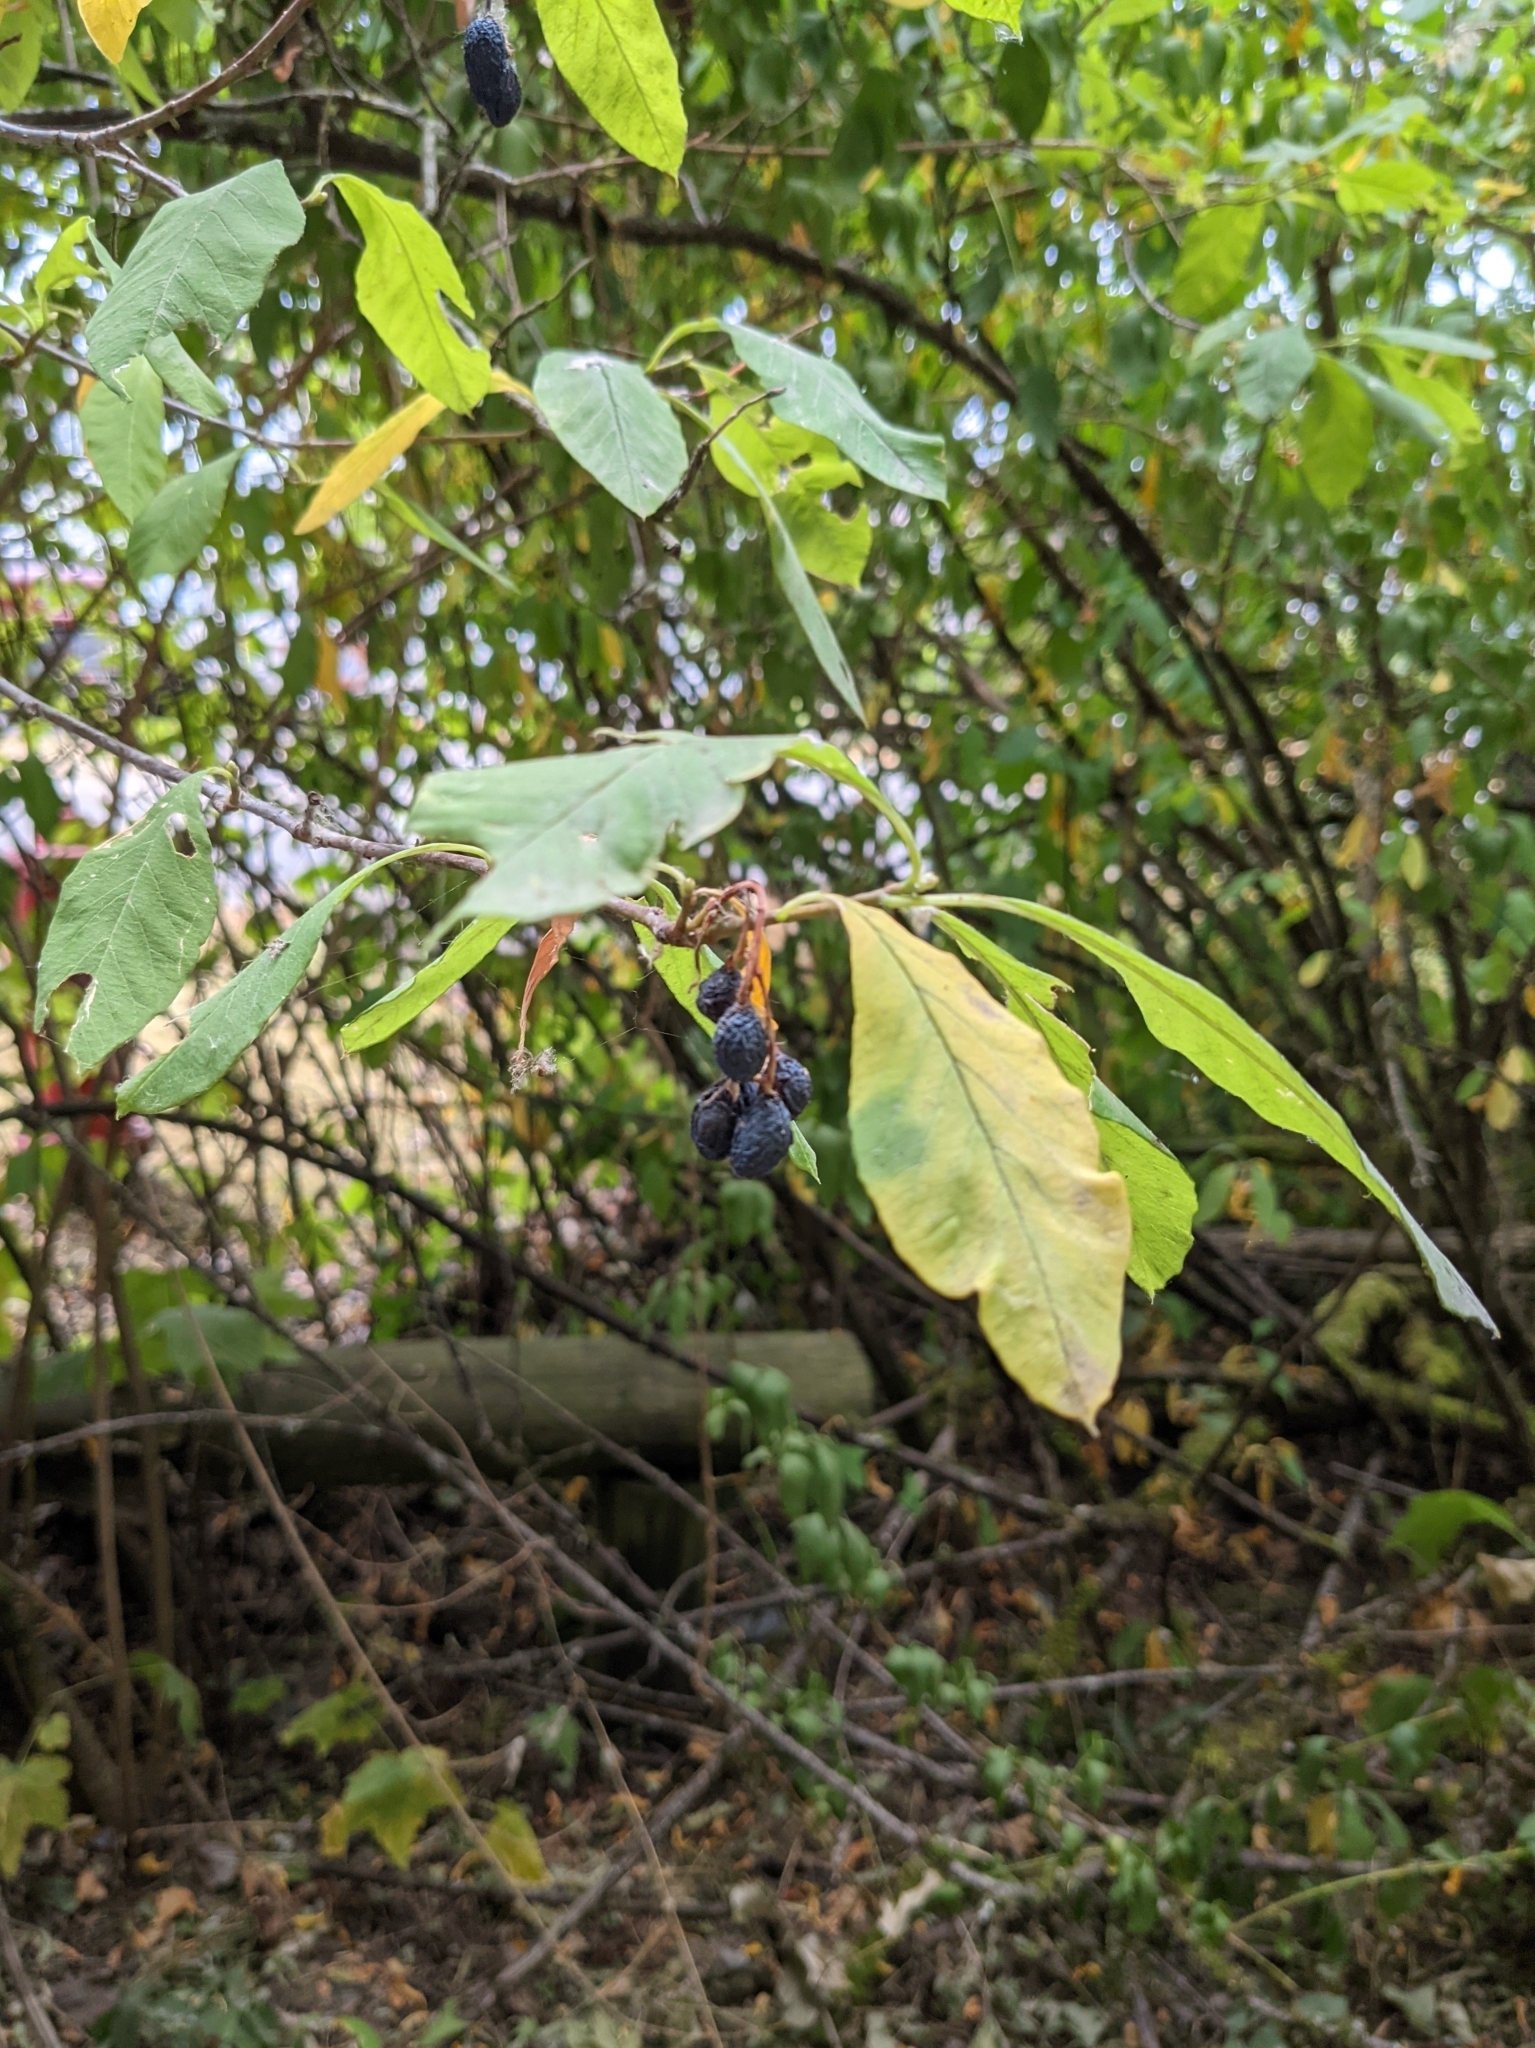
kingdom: Plantae
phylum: Tracheophyta
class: Magnoliopsida
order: Rosales
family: Rosaceae
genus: Oemleria
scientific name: Oemleria cerasiformis
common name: Osoberry
